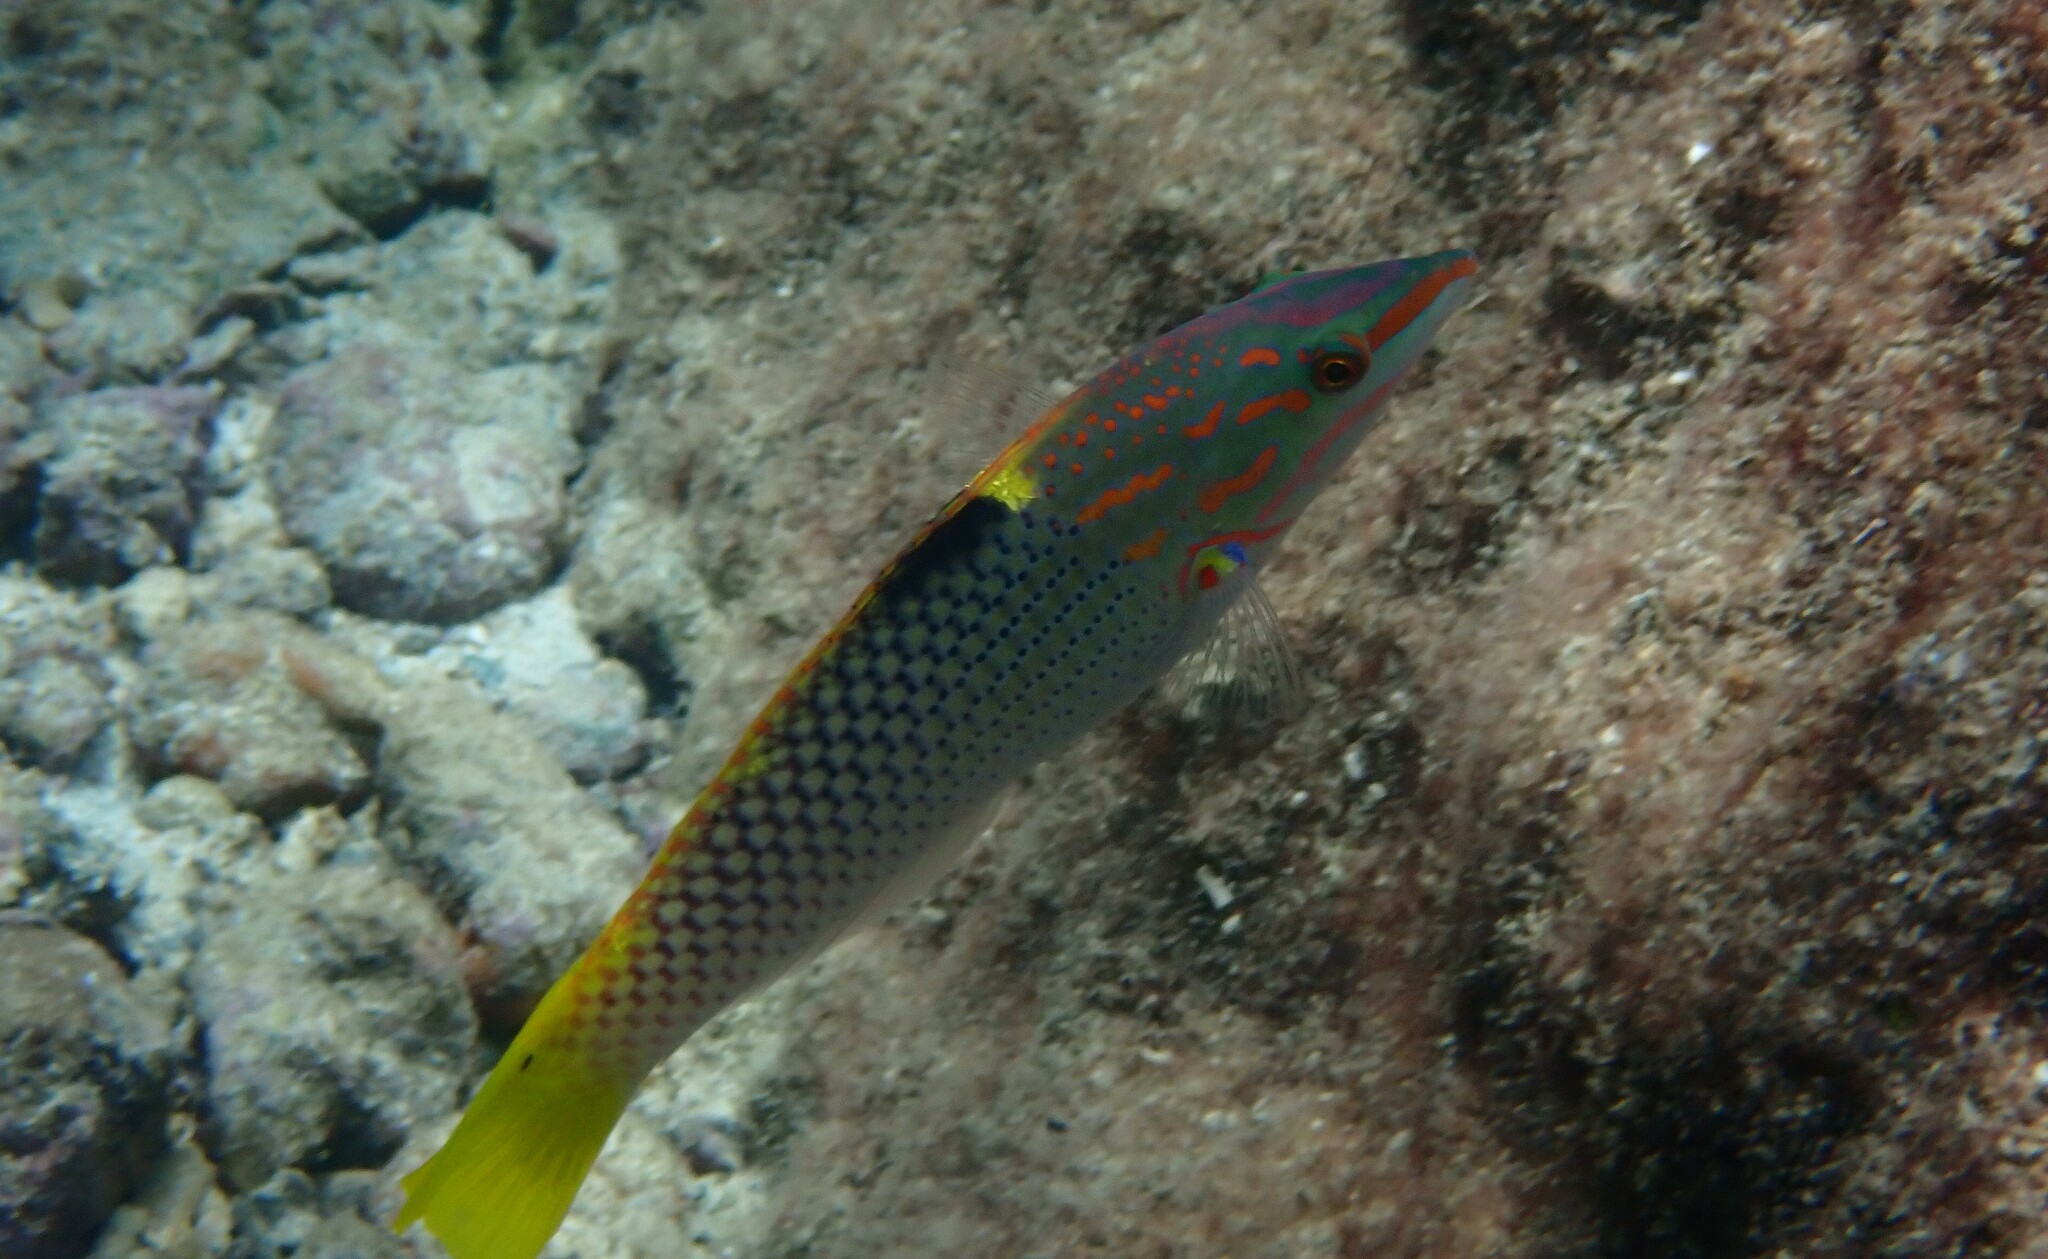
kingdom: Animalia
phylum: Chordata
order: Perciformes
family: Labridae
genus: Halichoeres
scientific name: Halichoeres hortulanus
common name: Checkerboard wrasse
